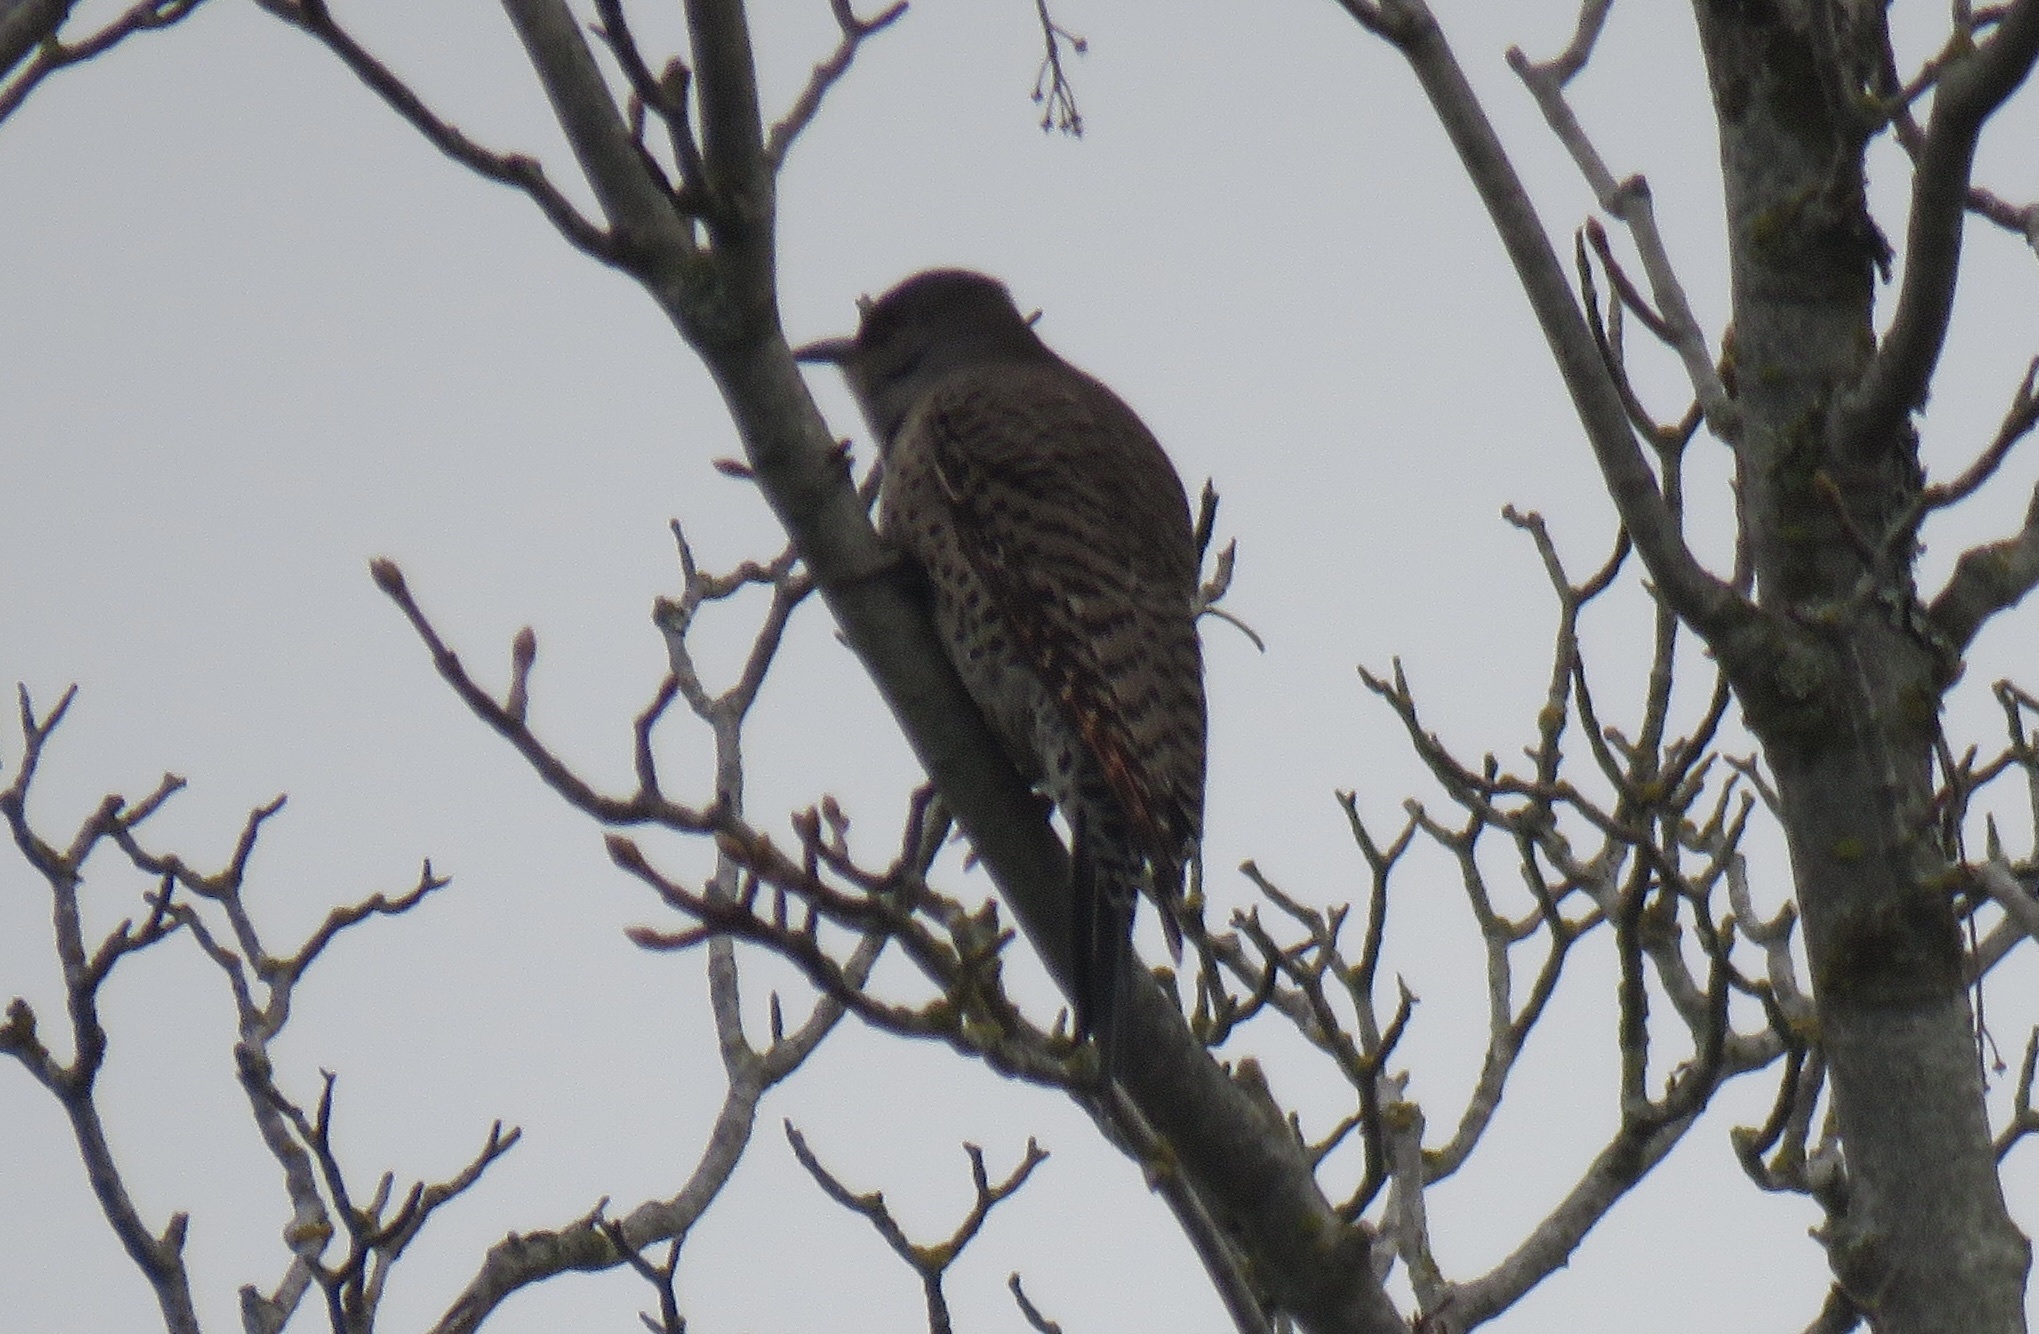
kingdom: Animalia
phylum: Chordata
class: Aves
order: Piciformes
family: Picidae
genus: Colaptes
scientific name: Colaptes auratus
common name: Northern flicker
